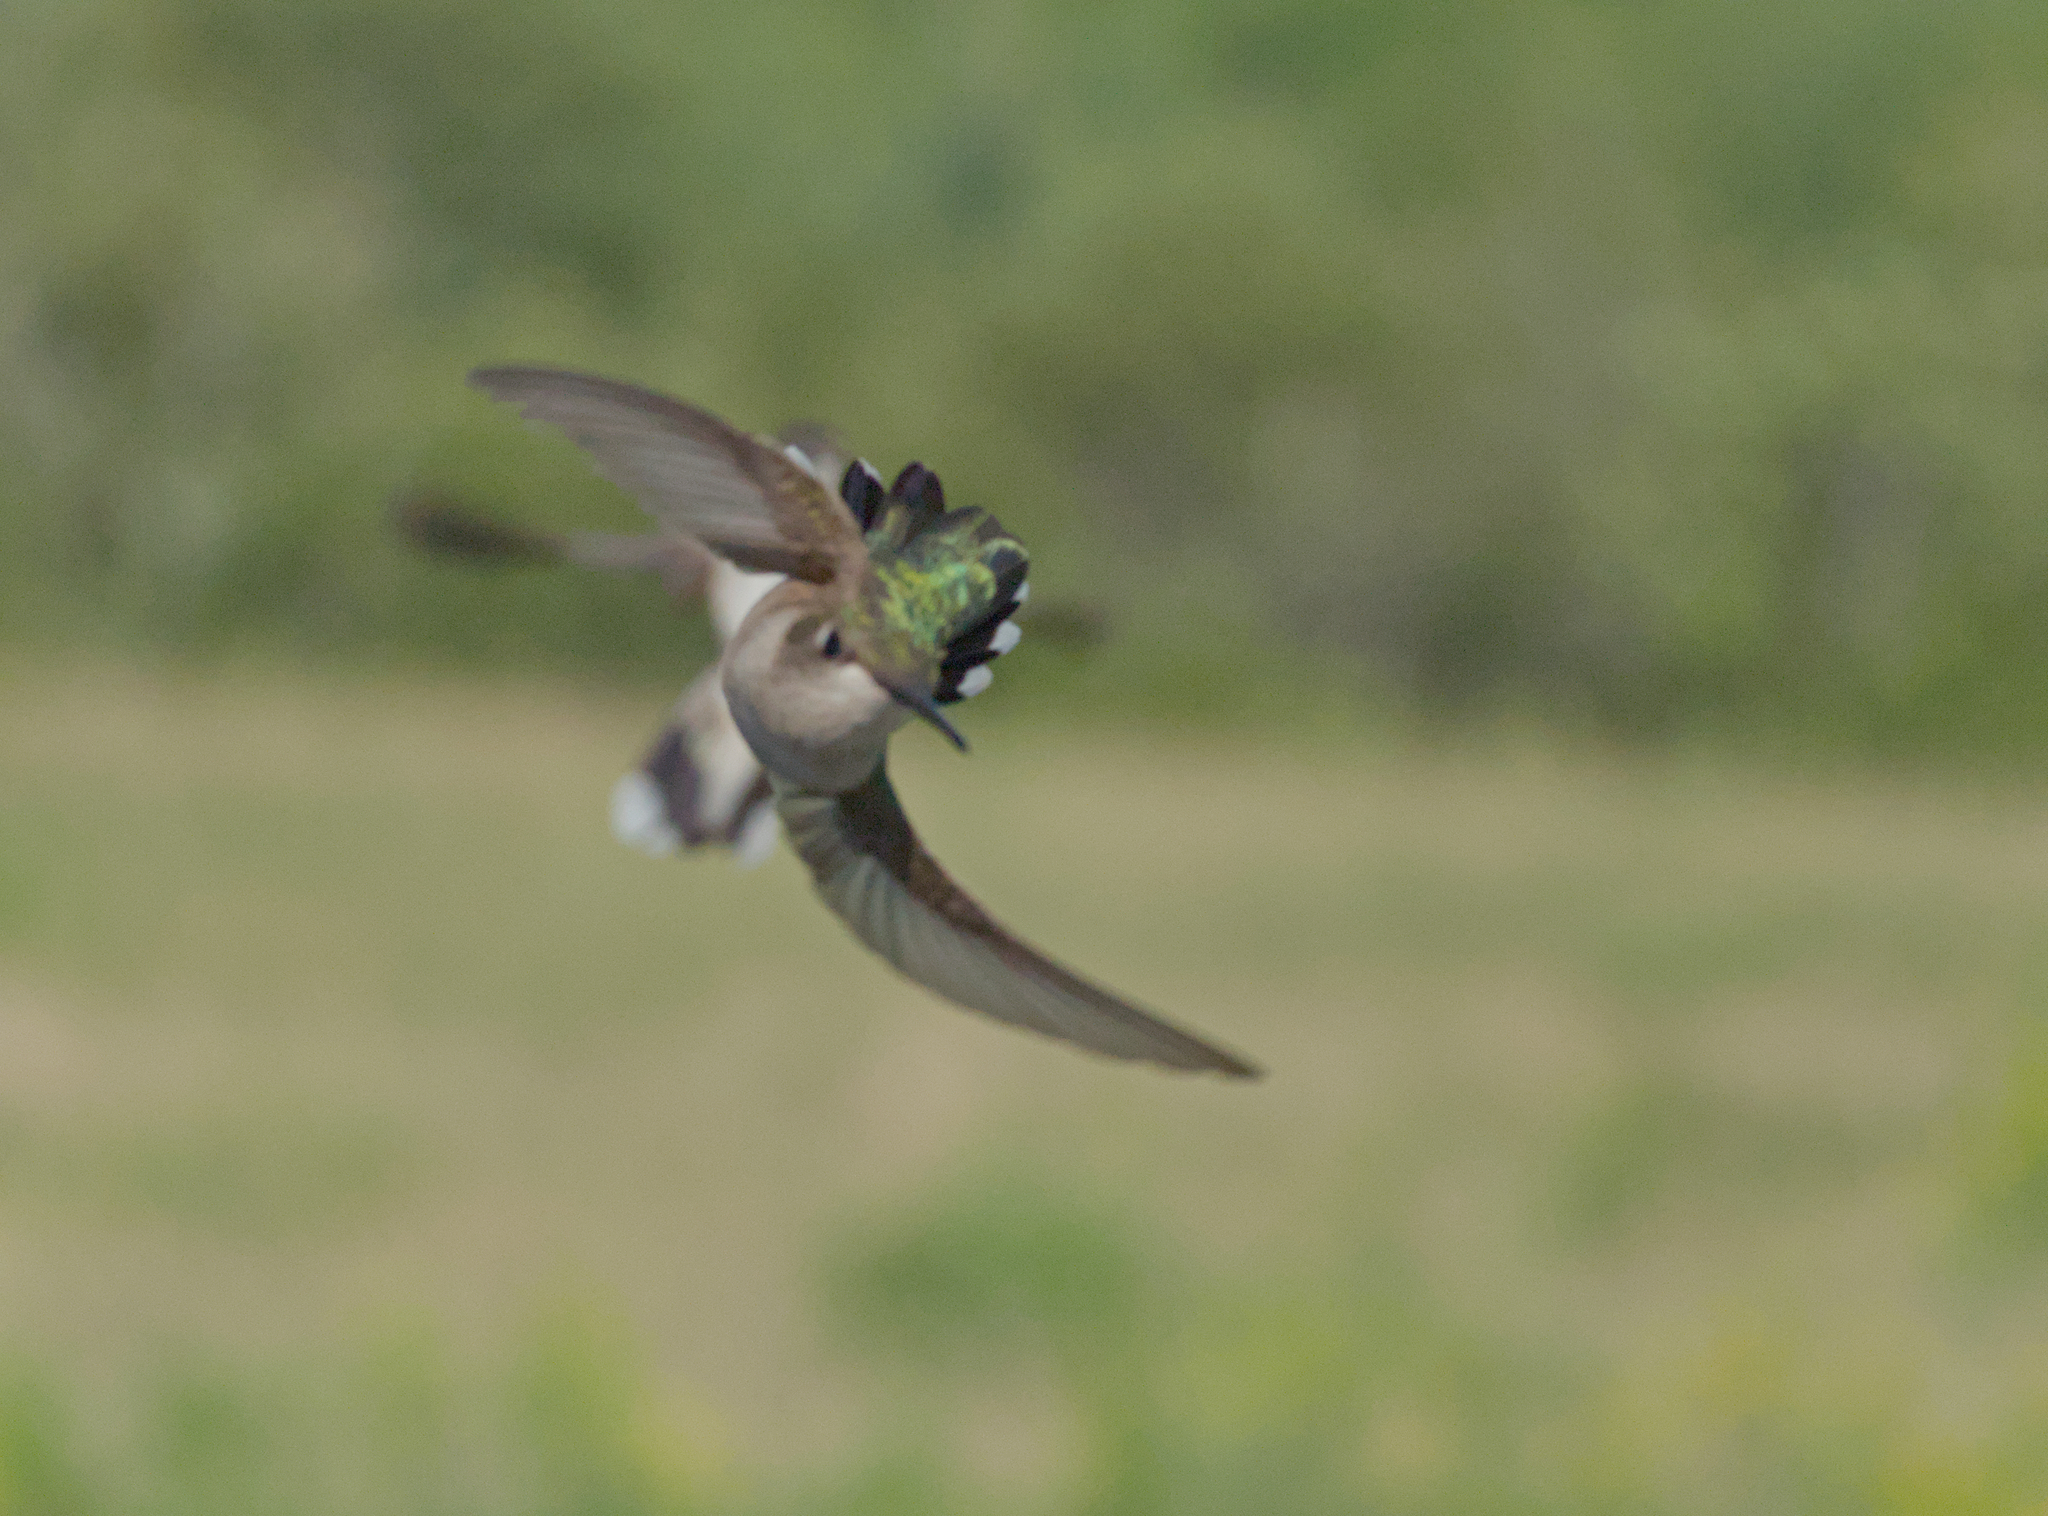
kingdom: Animalia
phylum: Chordata
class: Aves
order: Apodiformes
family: Trochilidae
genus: Archilochus
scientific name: Archilochus colubris
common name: Ruby-throated hummingbird
